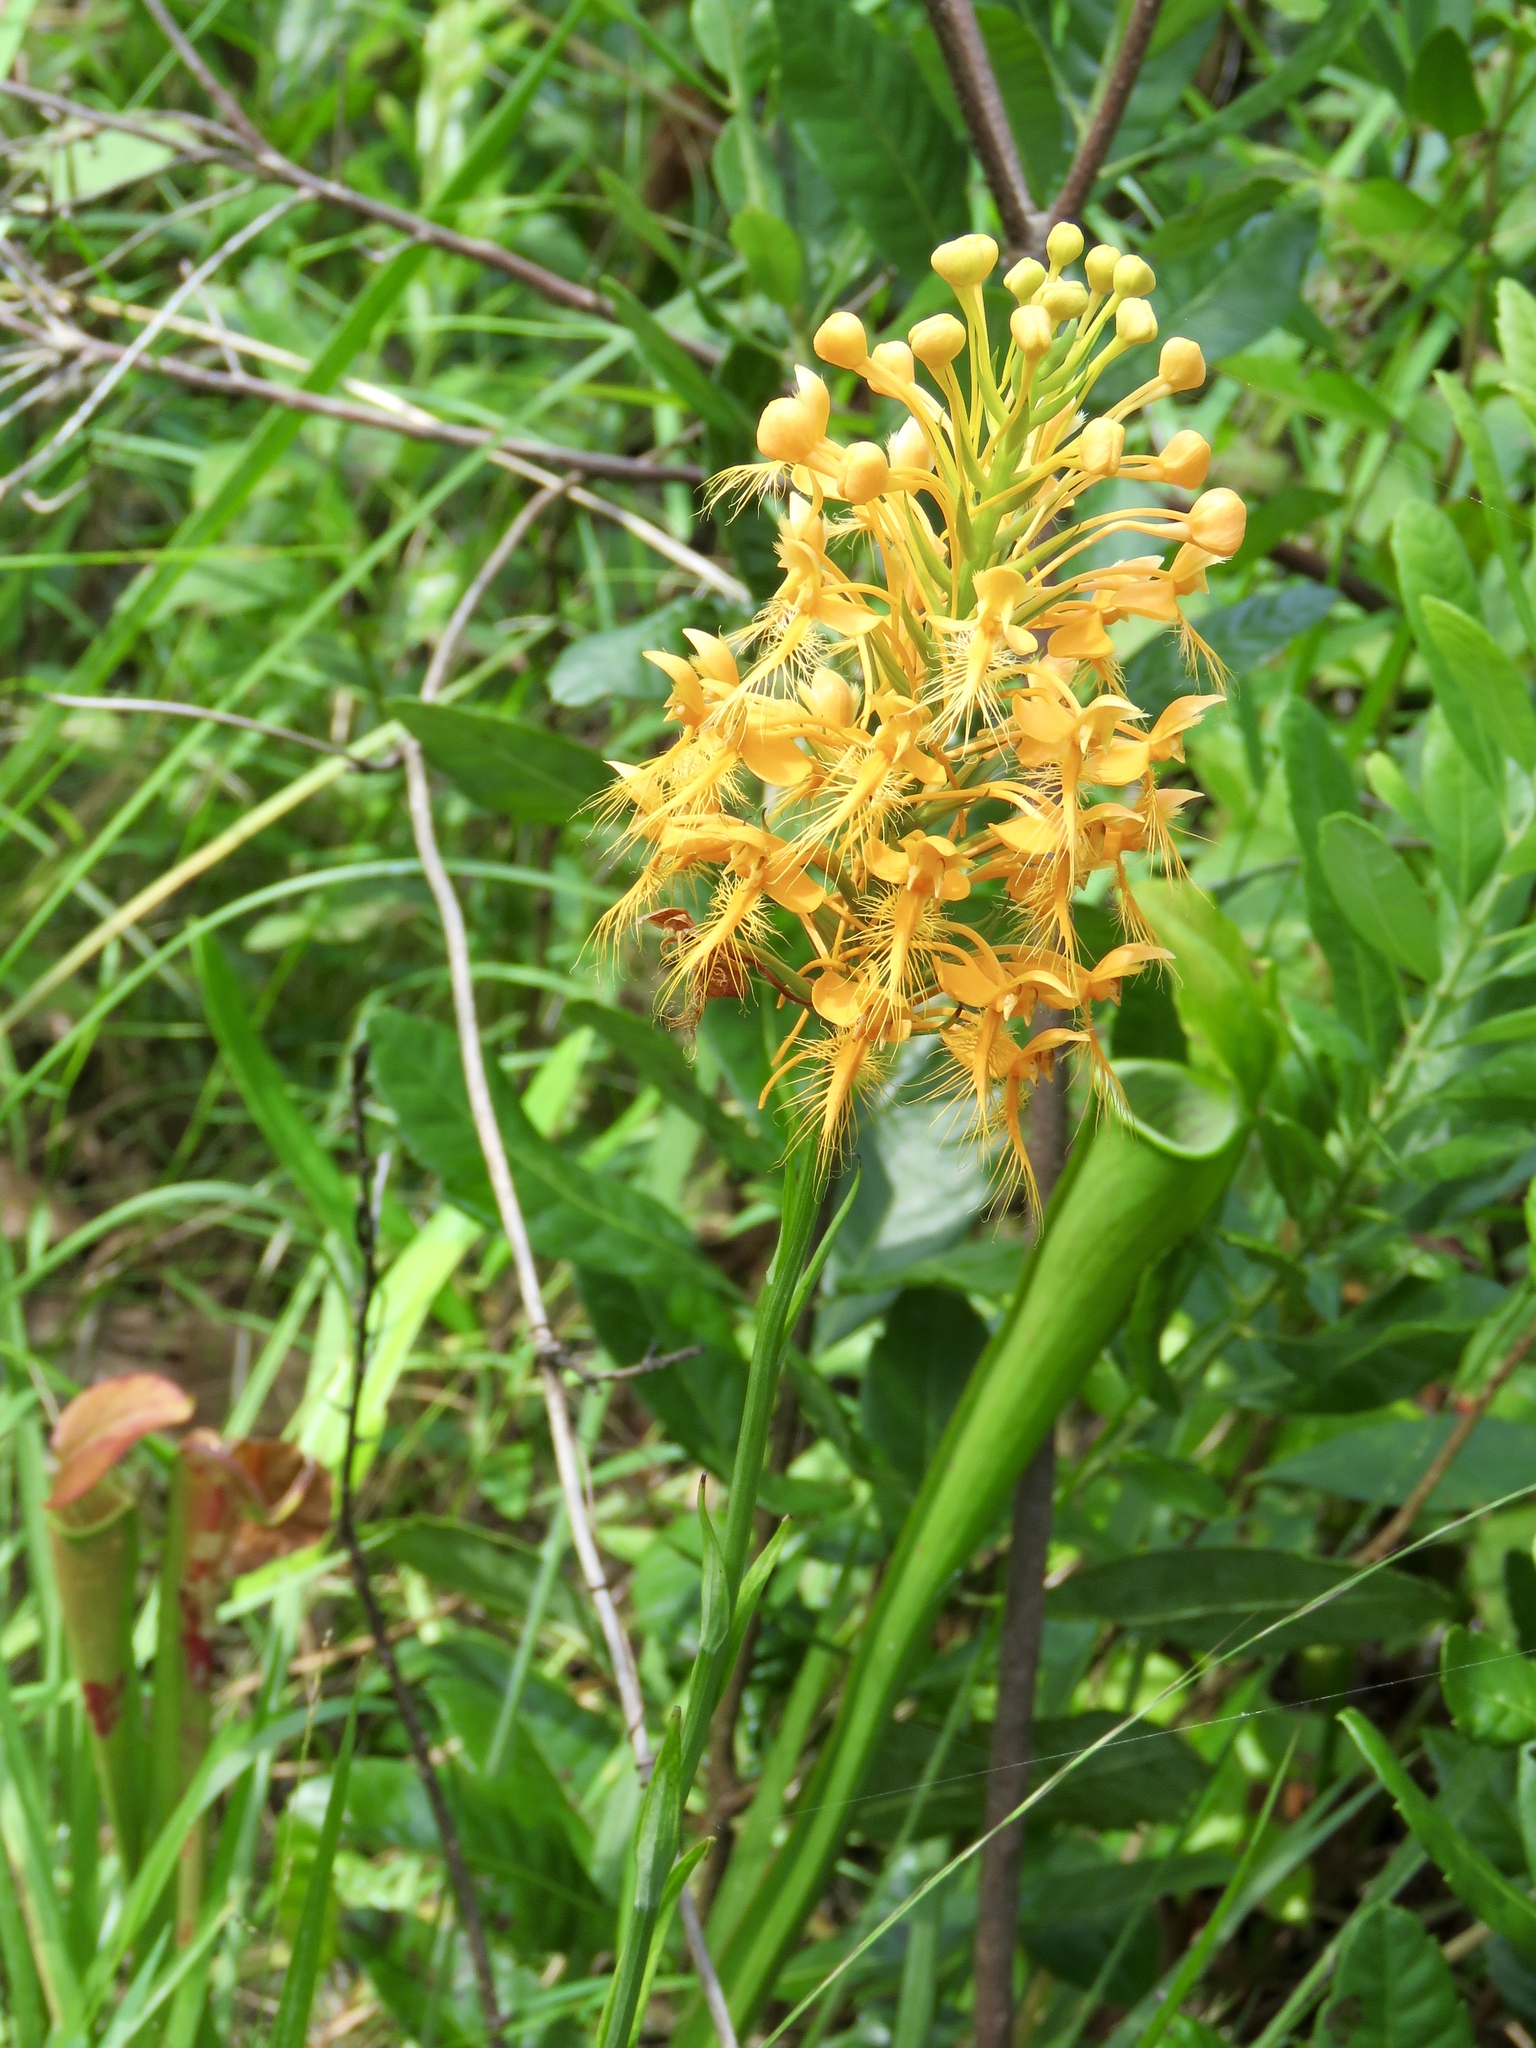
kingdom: Plantae
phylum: Tracheophyta
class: Liliopsida
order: Asparagales
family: Orchidaceae
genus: Platanthera
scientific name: Platanthera ciliaris
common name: Yellow fringed orchid
